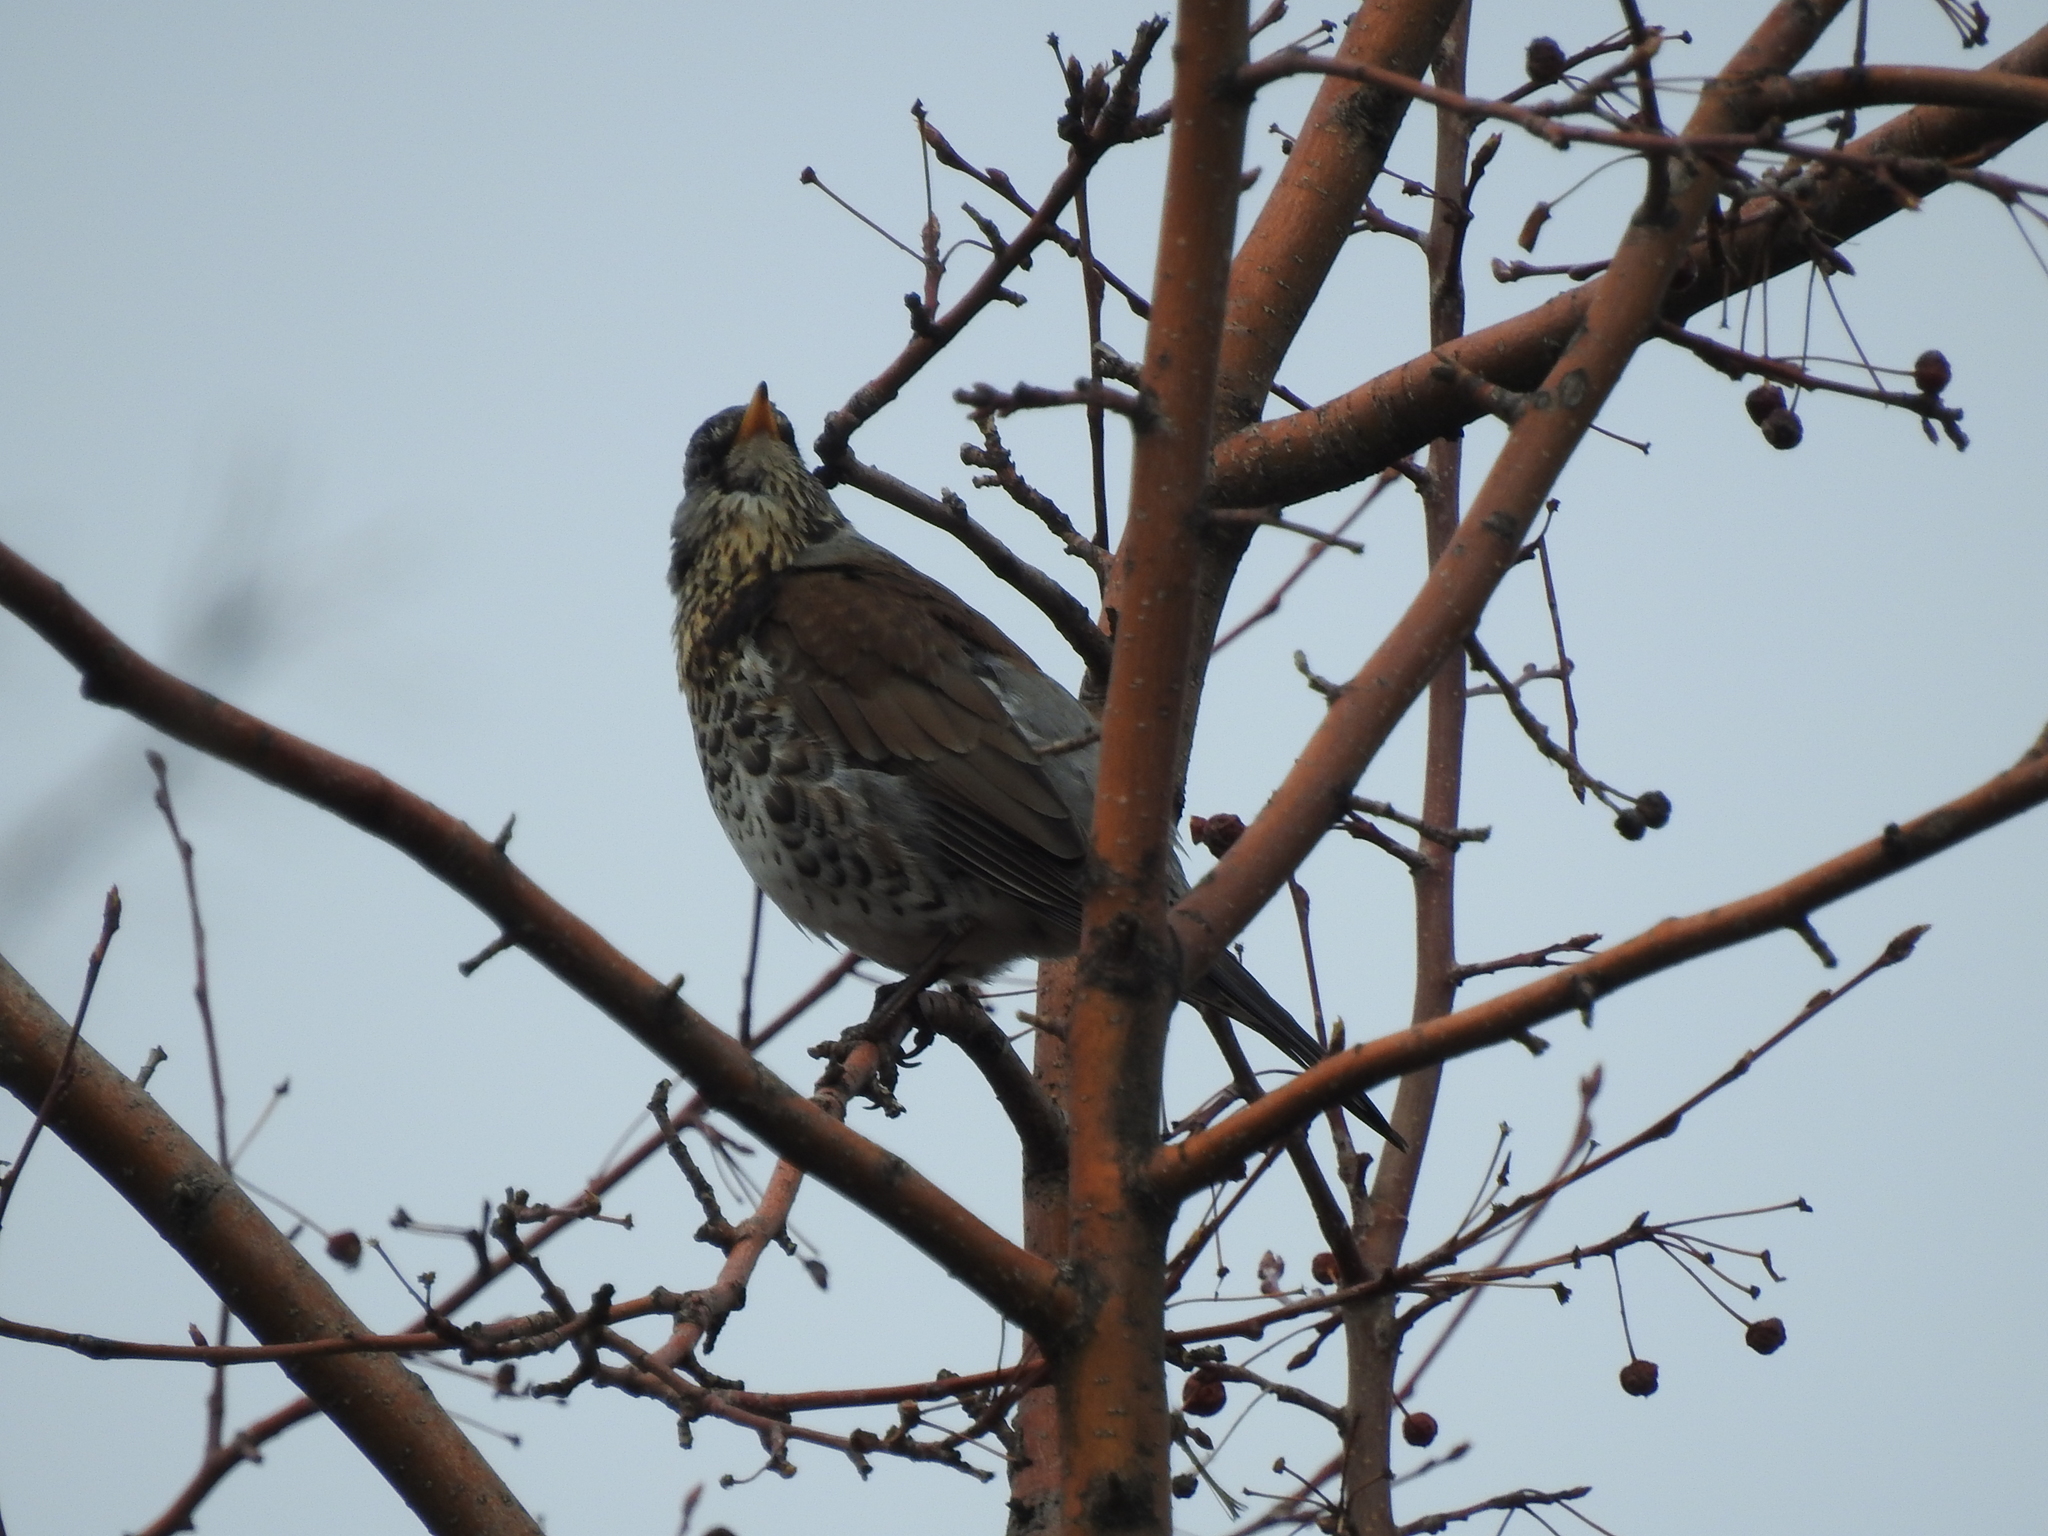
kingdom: Animalia
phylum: Chordata
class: Aves
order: Passeriformes
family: Turdidae
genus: Turdus
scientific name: Turdus pilaris
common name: Fieldfare
